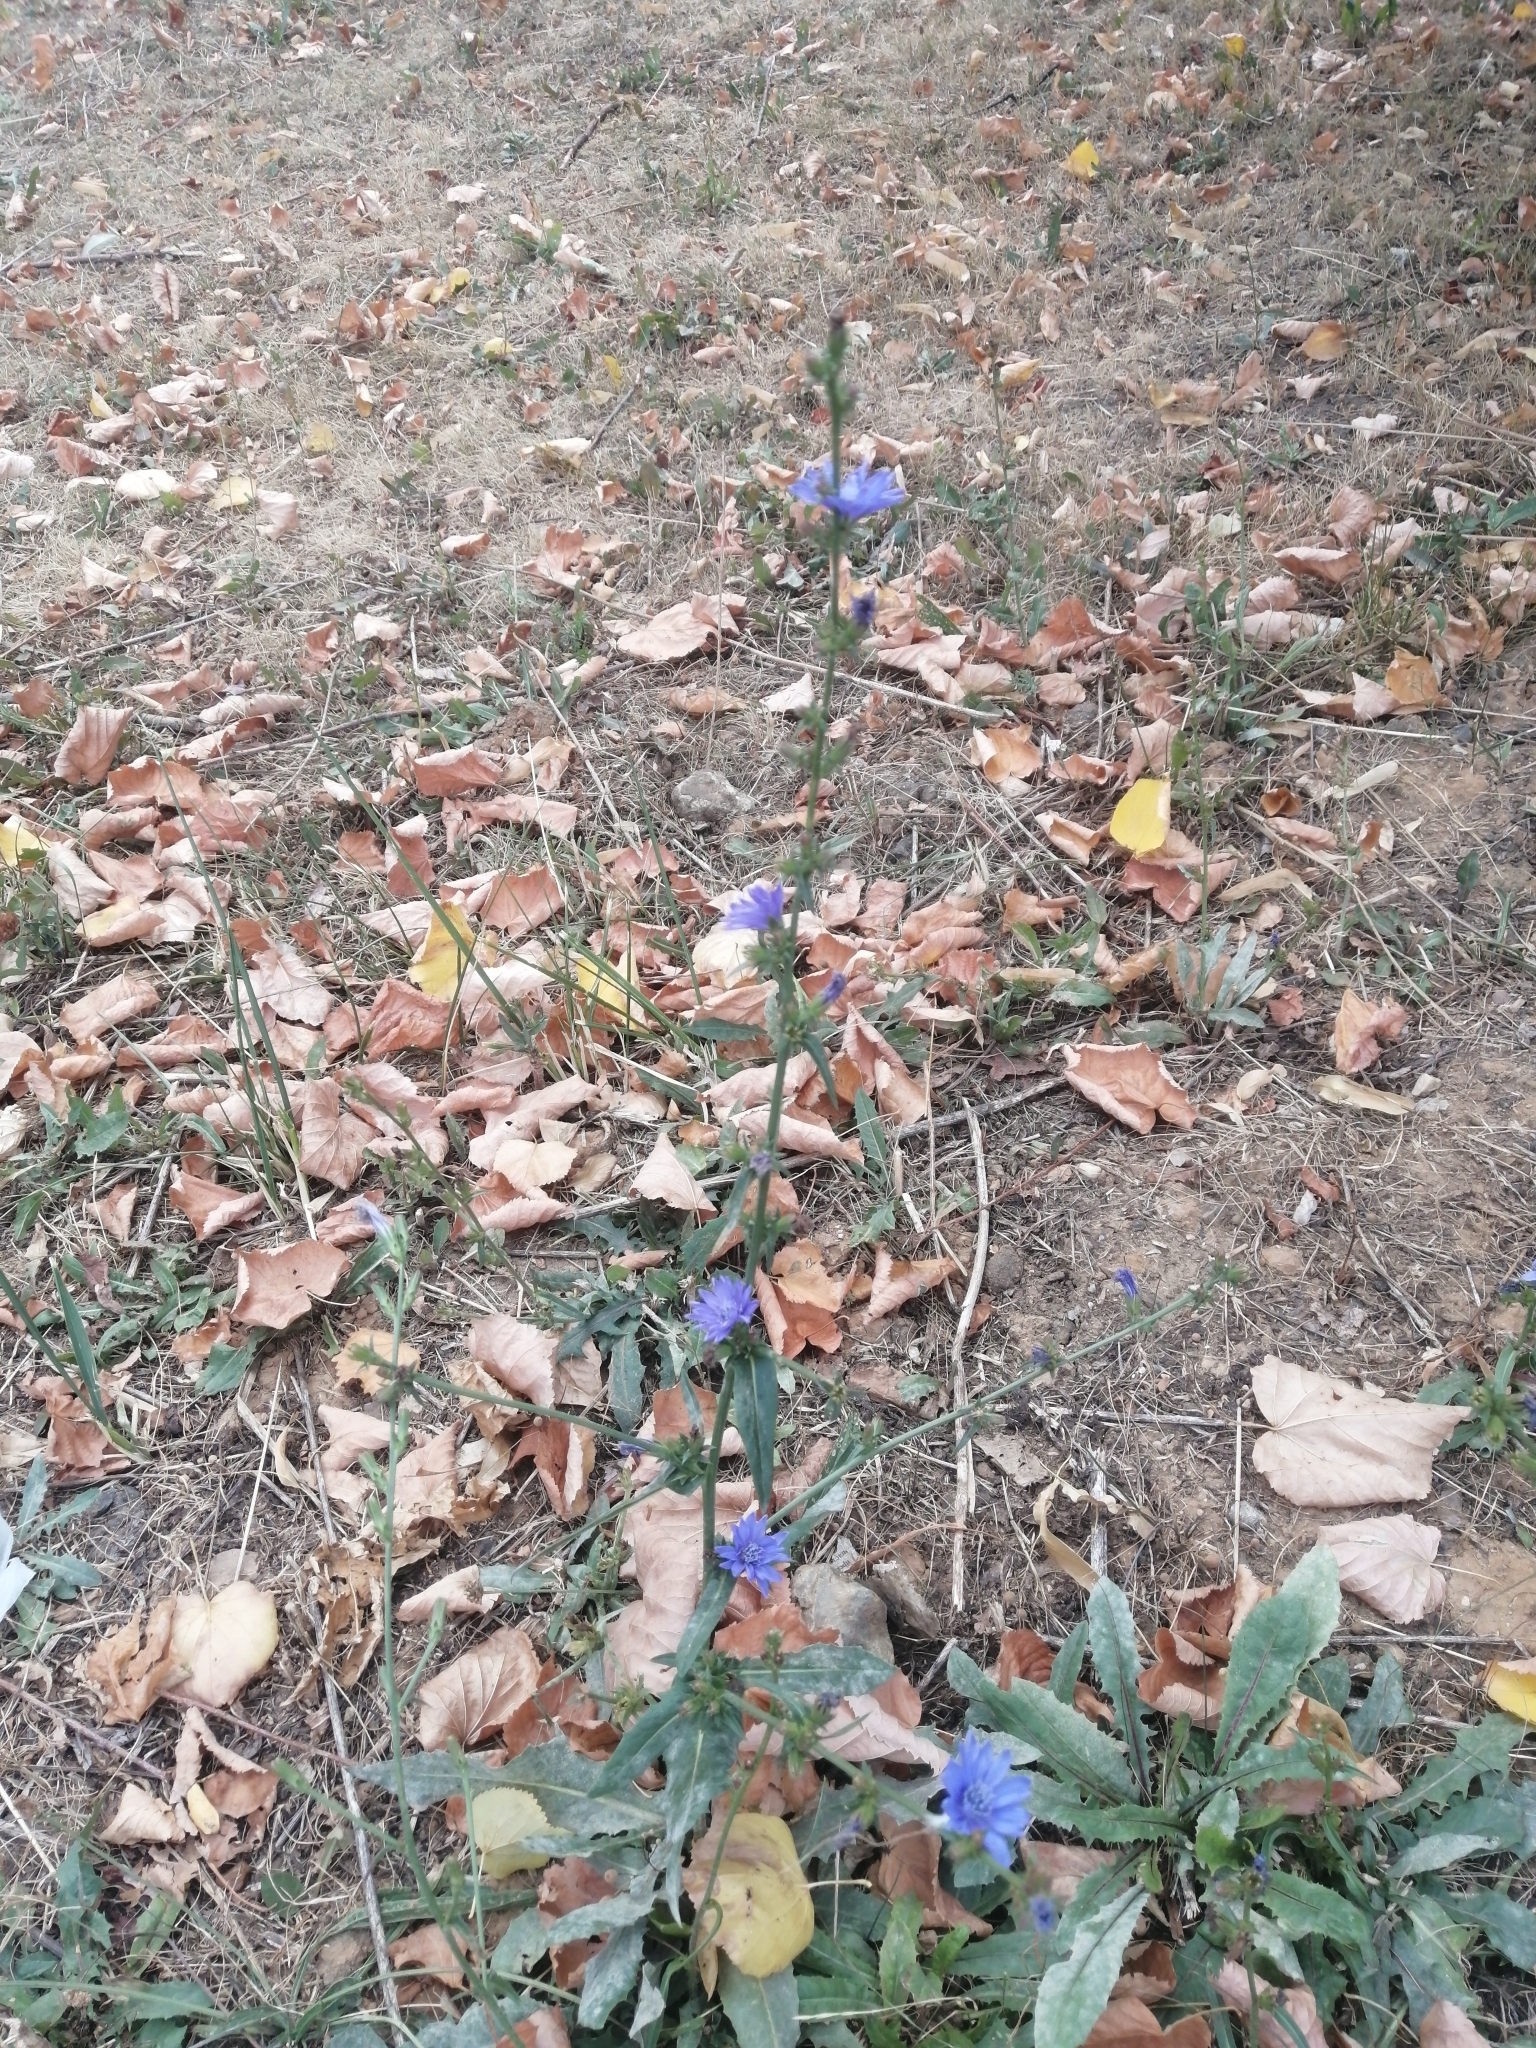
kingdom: Plantae
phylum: Tracheophyta
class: Magnoliopsida
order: Asterales
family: Asteraceae
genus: Cichorium
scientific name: Cichorium intybus
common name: Chicory
